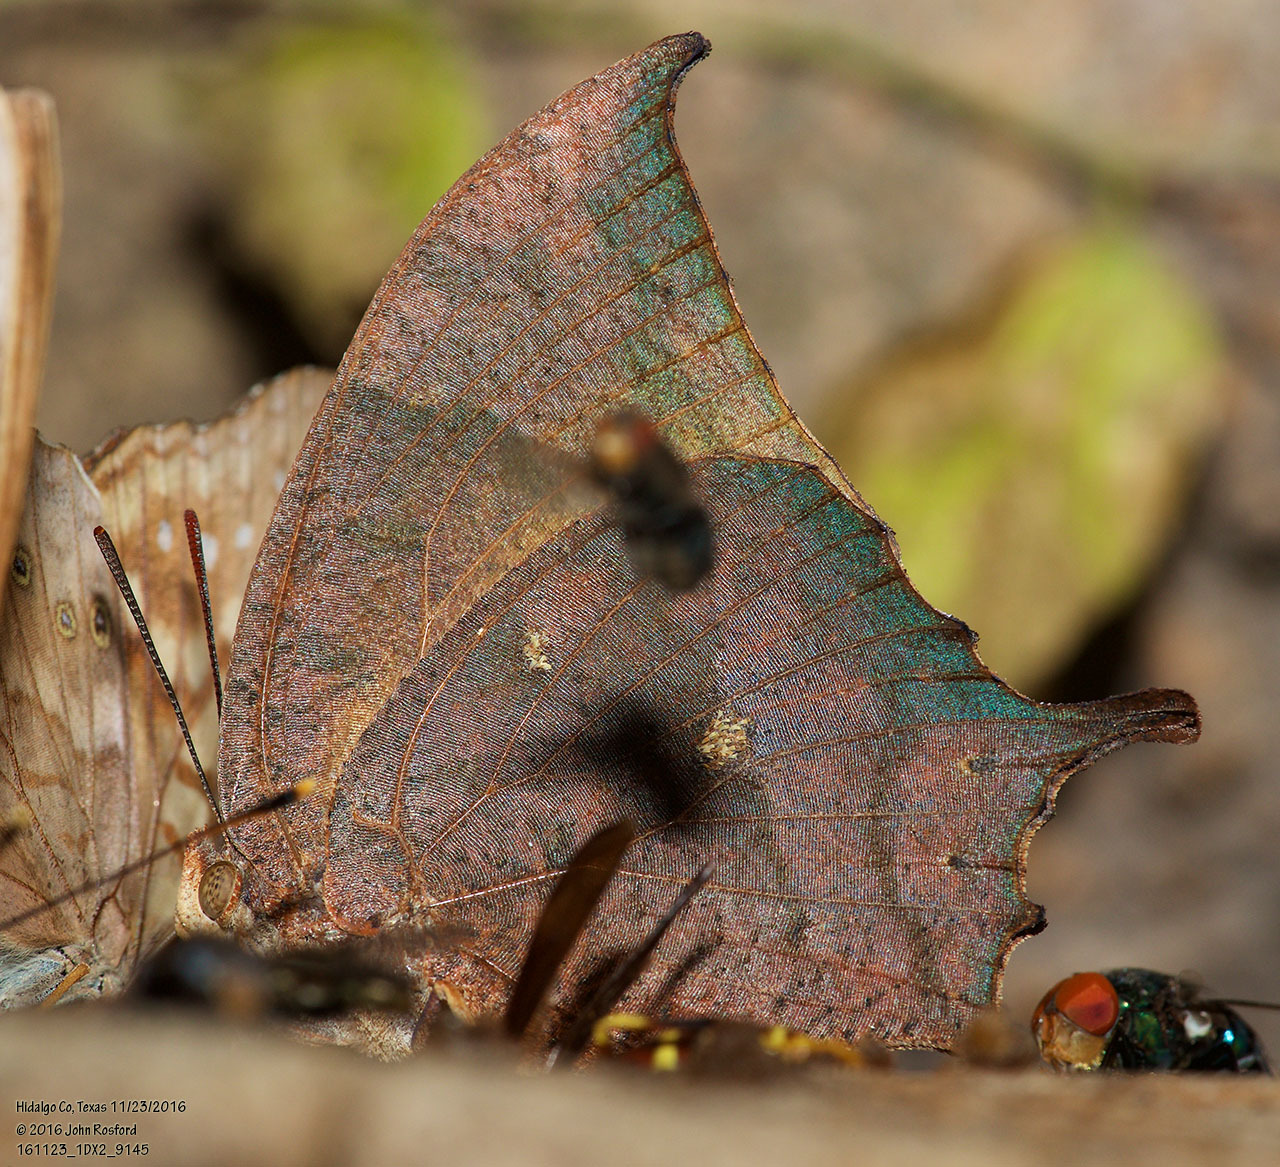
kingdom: Animalia
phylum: Arthropoda
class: Insecta
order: Lepidoptera
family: Nymphalidae
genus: Anaea
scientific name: Anaea aidea
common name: Tropical leafwing
